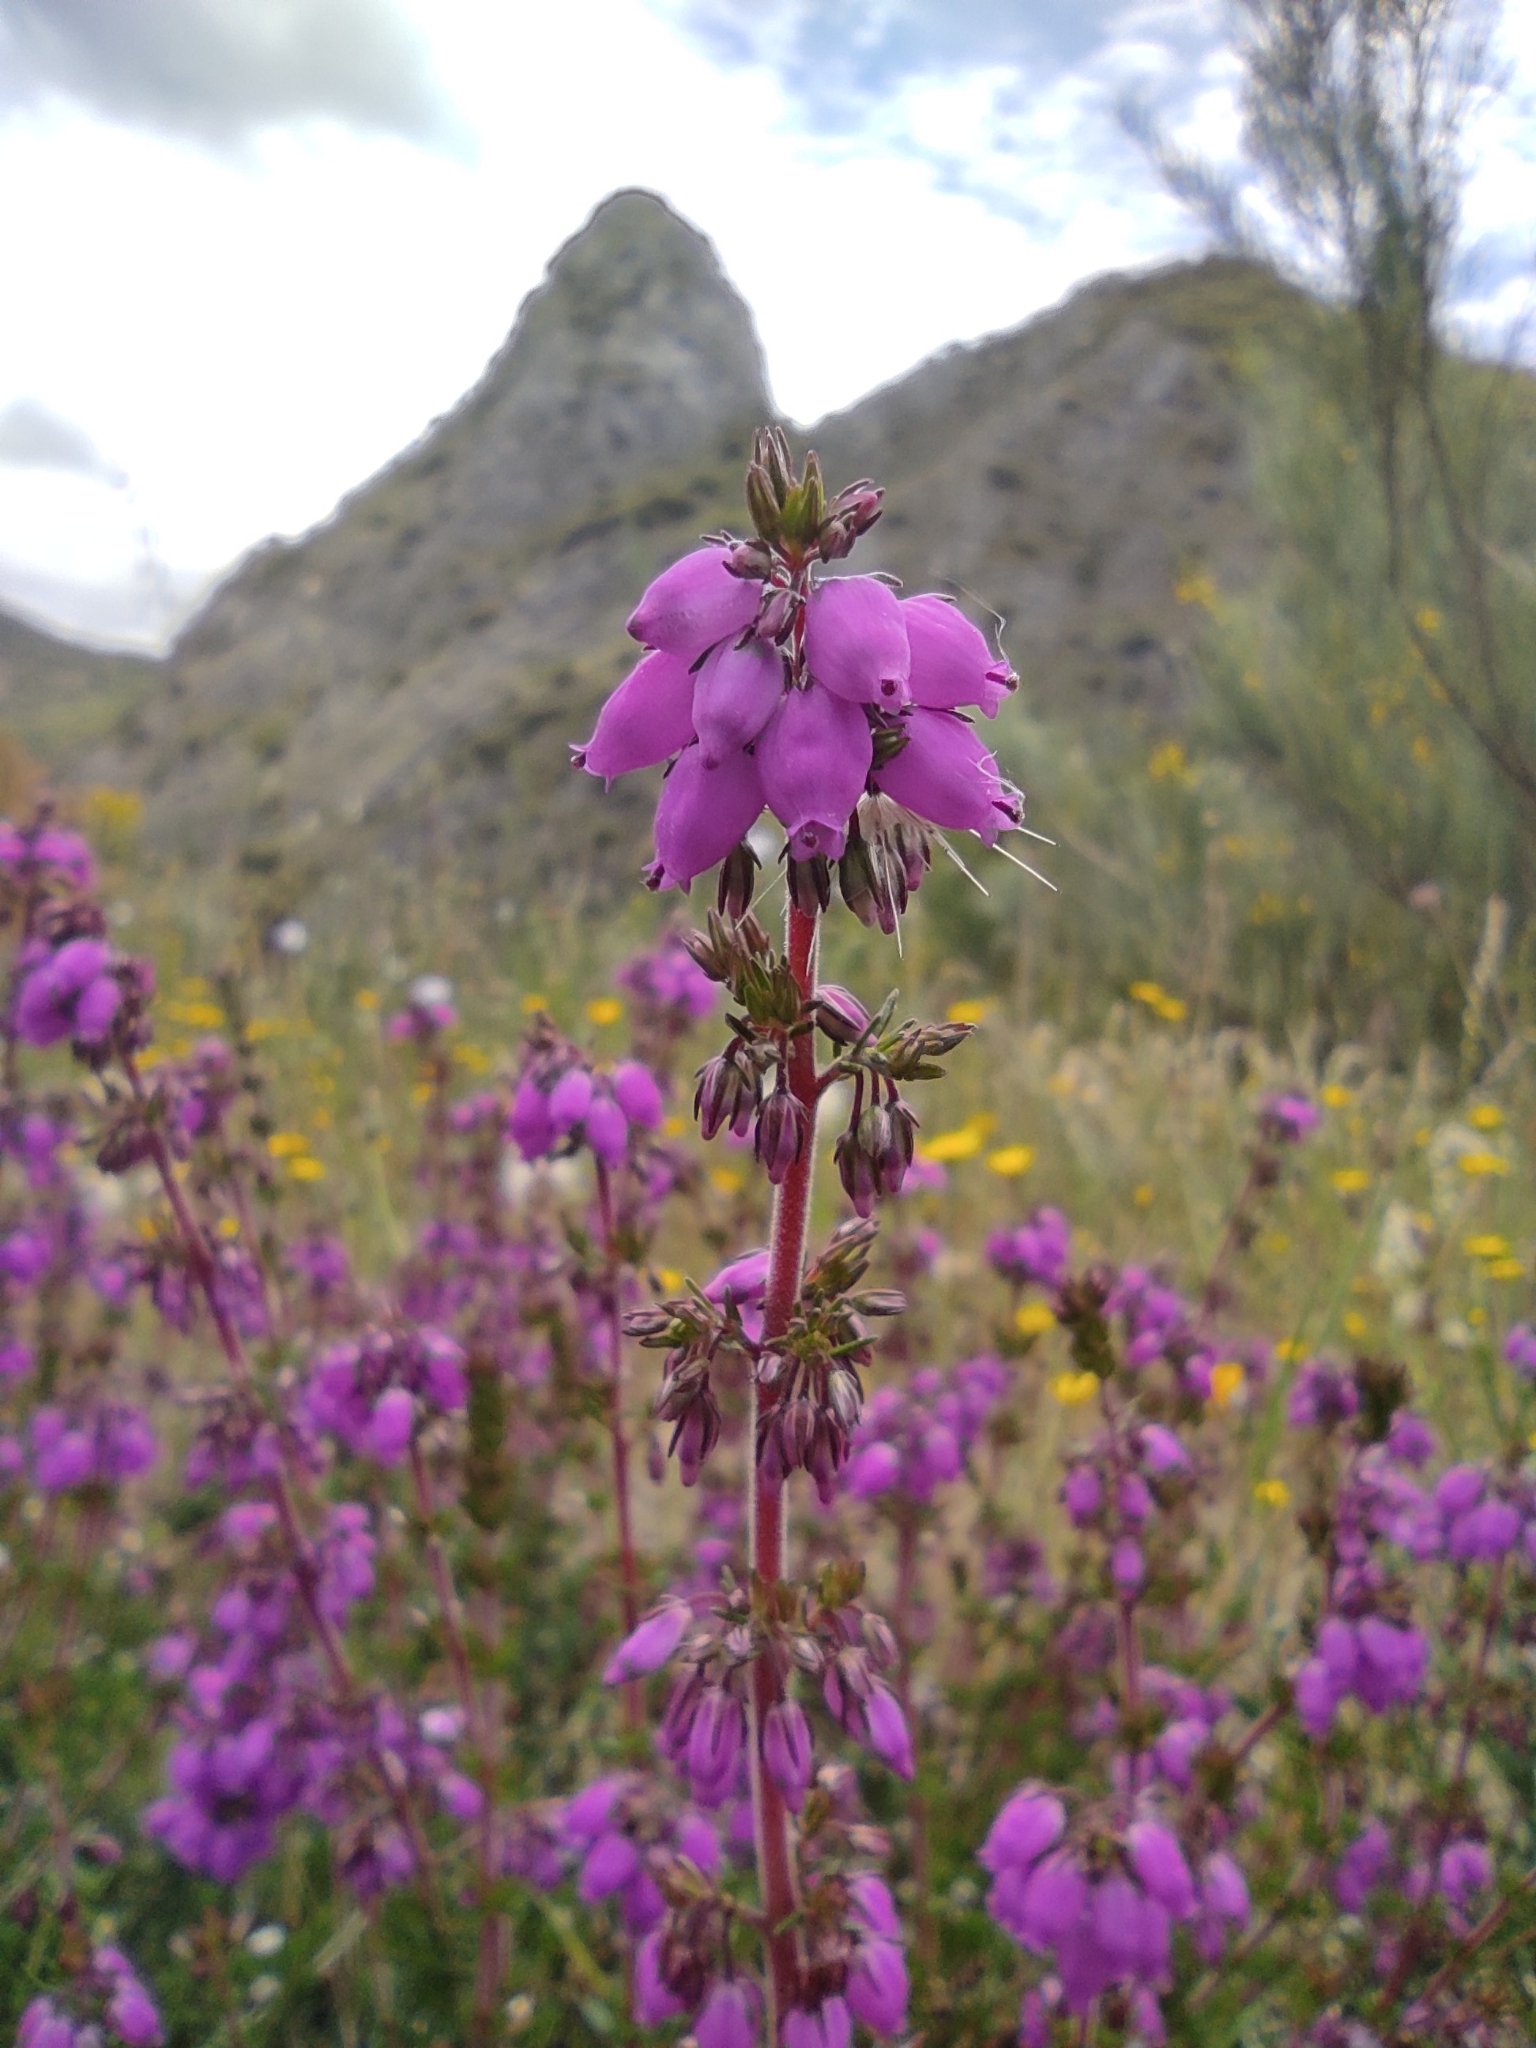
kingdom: Plantae
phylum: Tracheophyta
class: Magnoliopsida
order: Ericales
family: Ericaceae
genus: Erica
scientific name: Erica cinerea
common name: Bell heather
